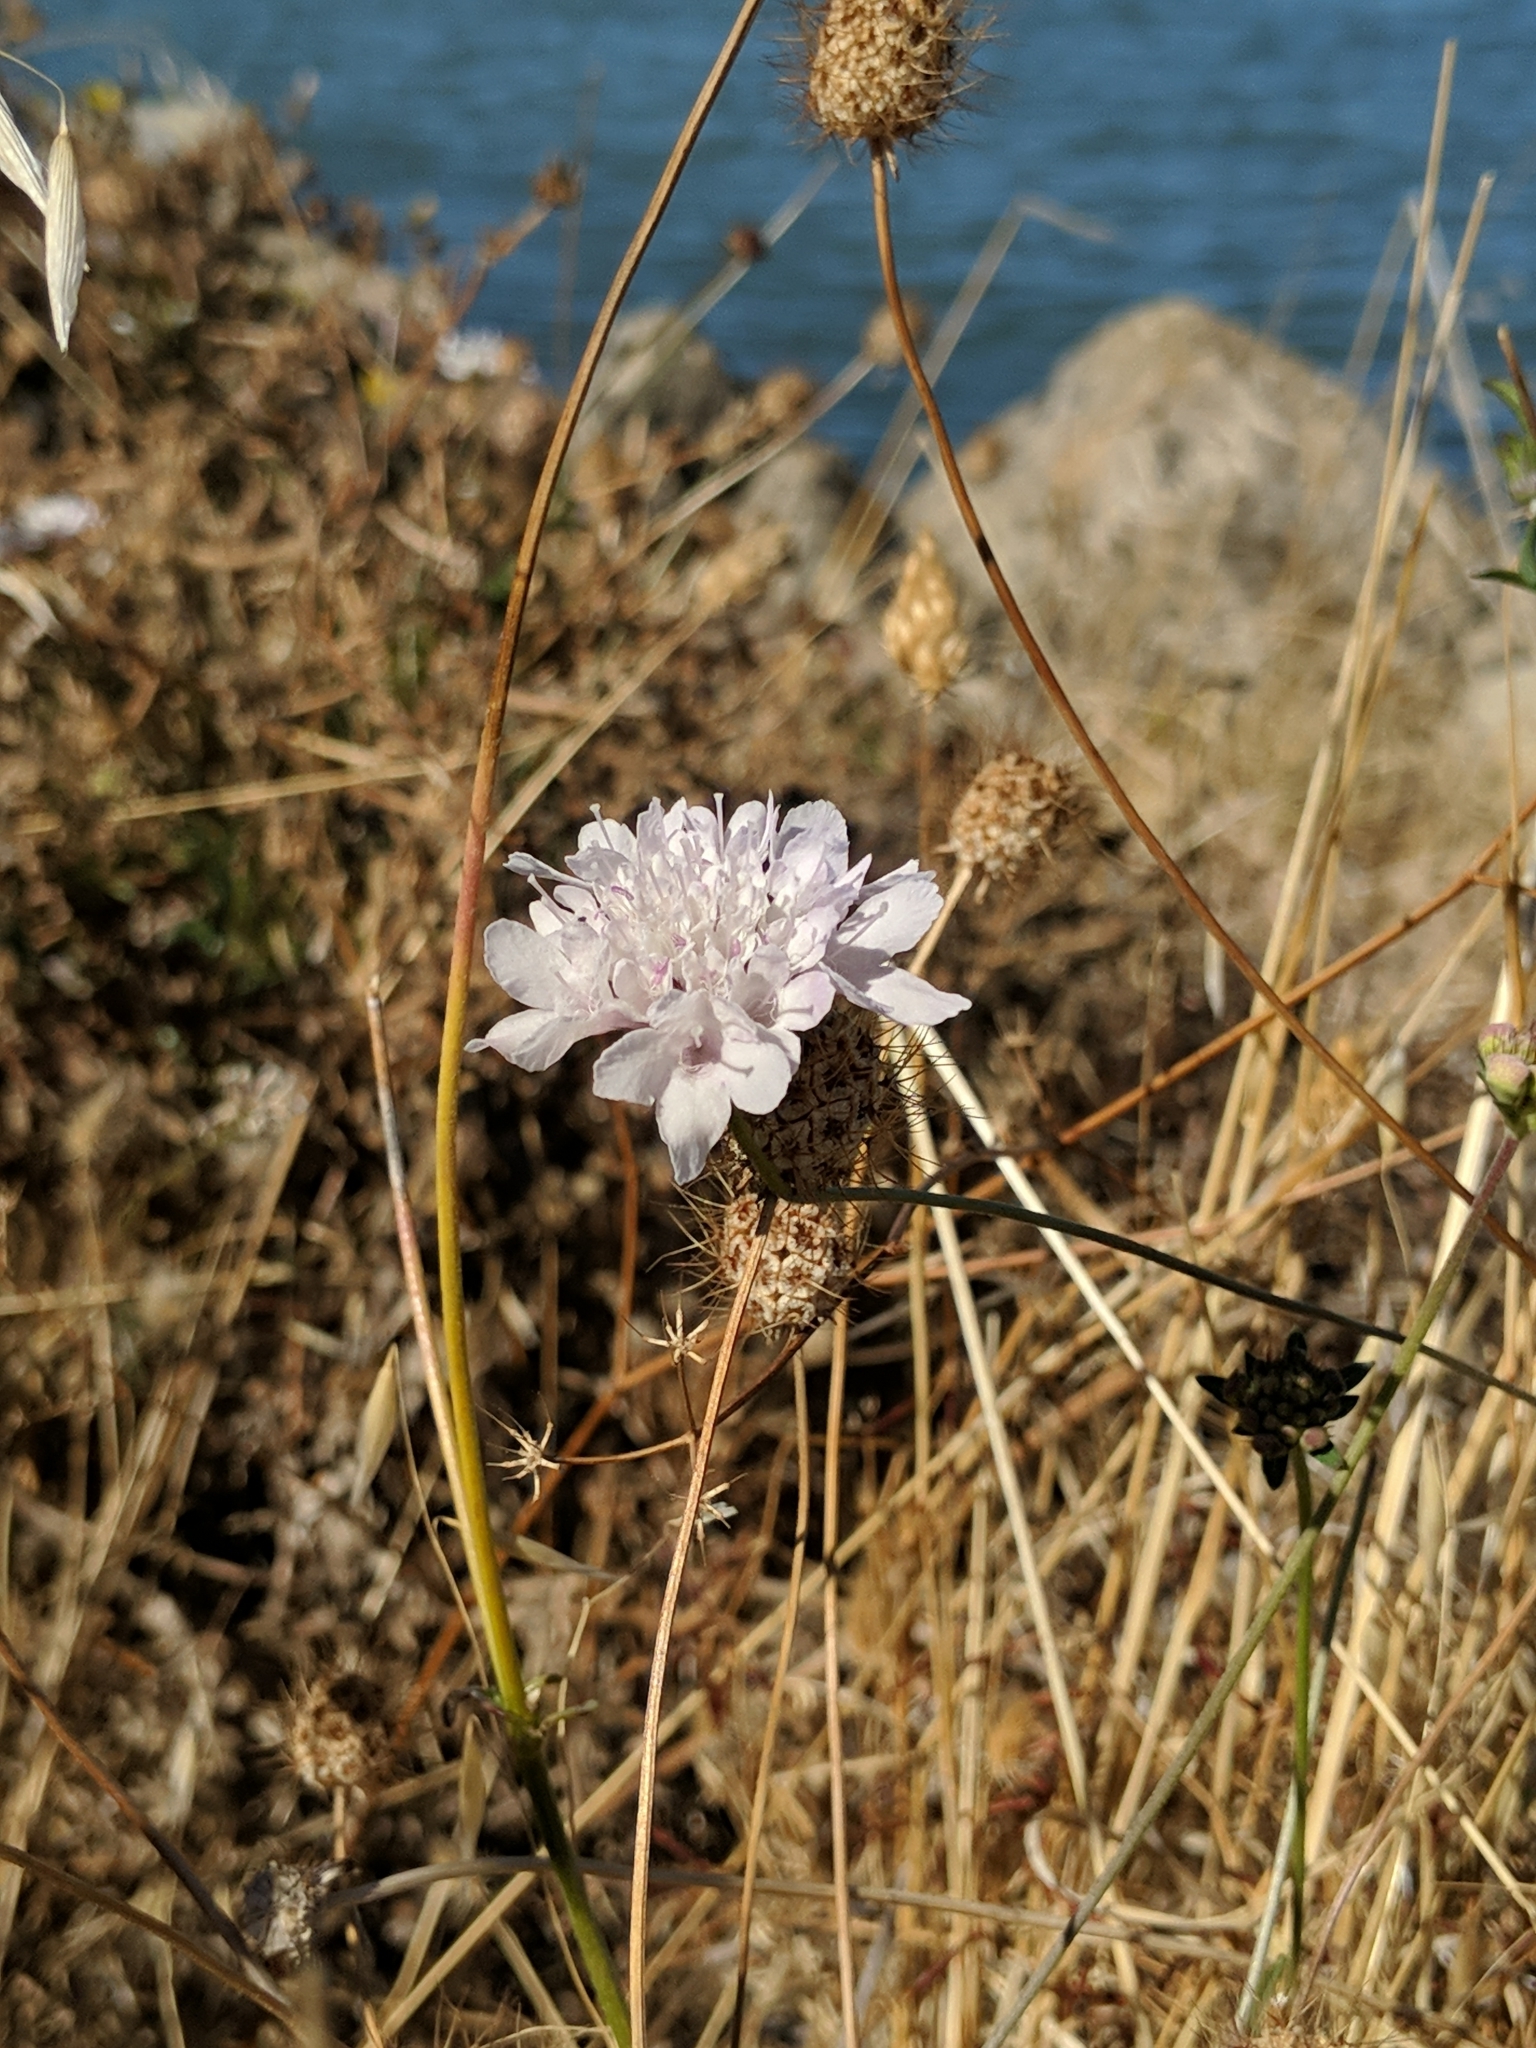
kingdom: Plantae
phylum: Tracheophyta
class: Magnoliopsida
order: Dipsacales
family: Caprifoliaceae
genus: Sixalix
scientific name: Sixalix atropurpurea
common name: Sweet scabious
